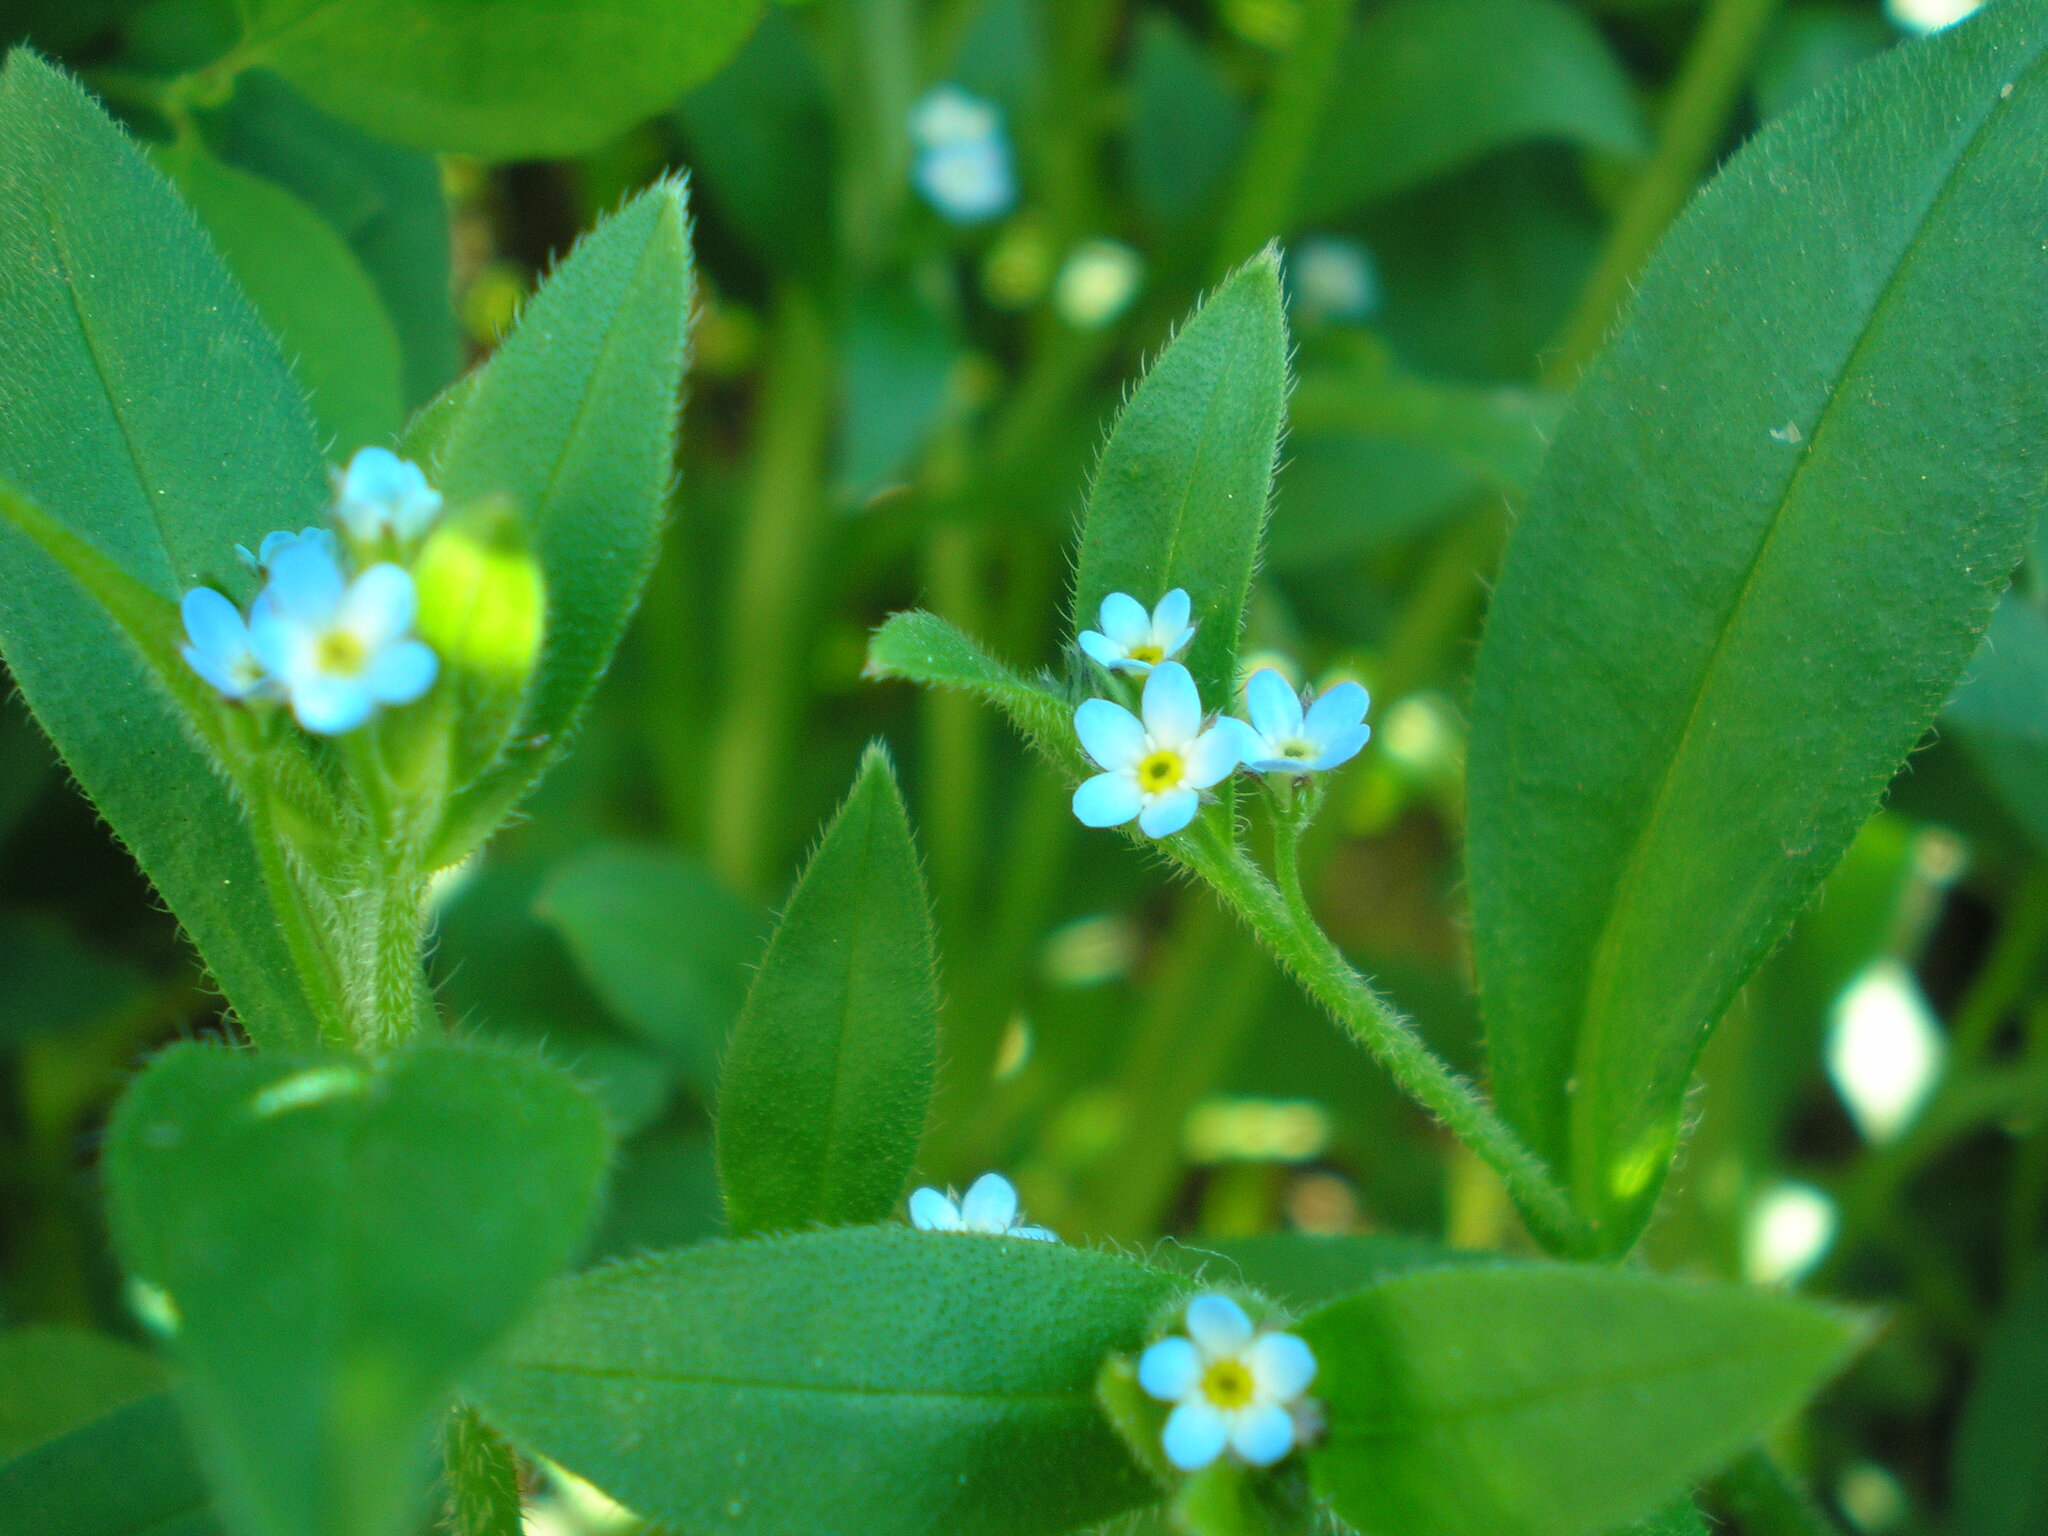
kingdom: Plantae
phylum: Tracheophyta
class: Magnoliopsida
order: Boraginales
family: Boraginaceae
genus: Myosotis
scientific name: Myosotis sparsiflora
